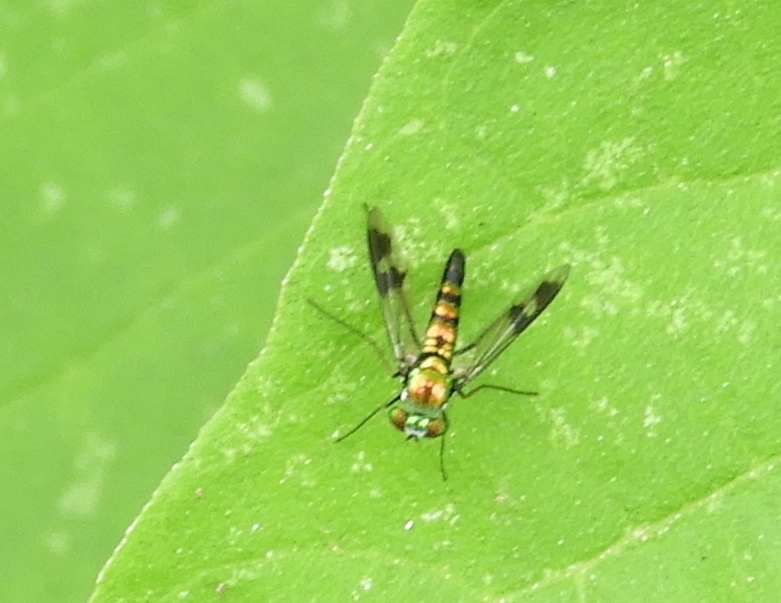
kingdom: Animalia
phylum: Arthropoda
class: Insecta
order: Diptera
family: Dolichopodidae
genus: Condylostylus
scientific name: Condylostylus
